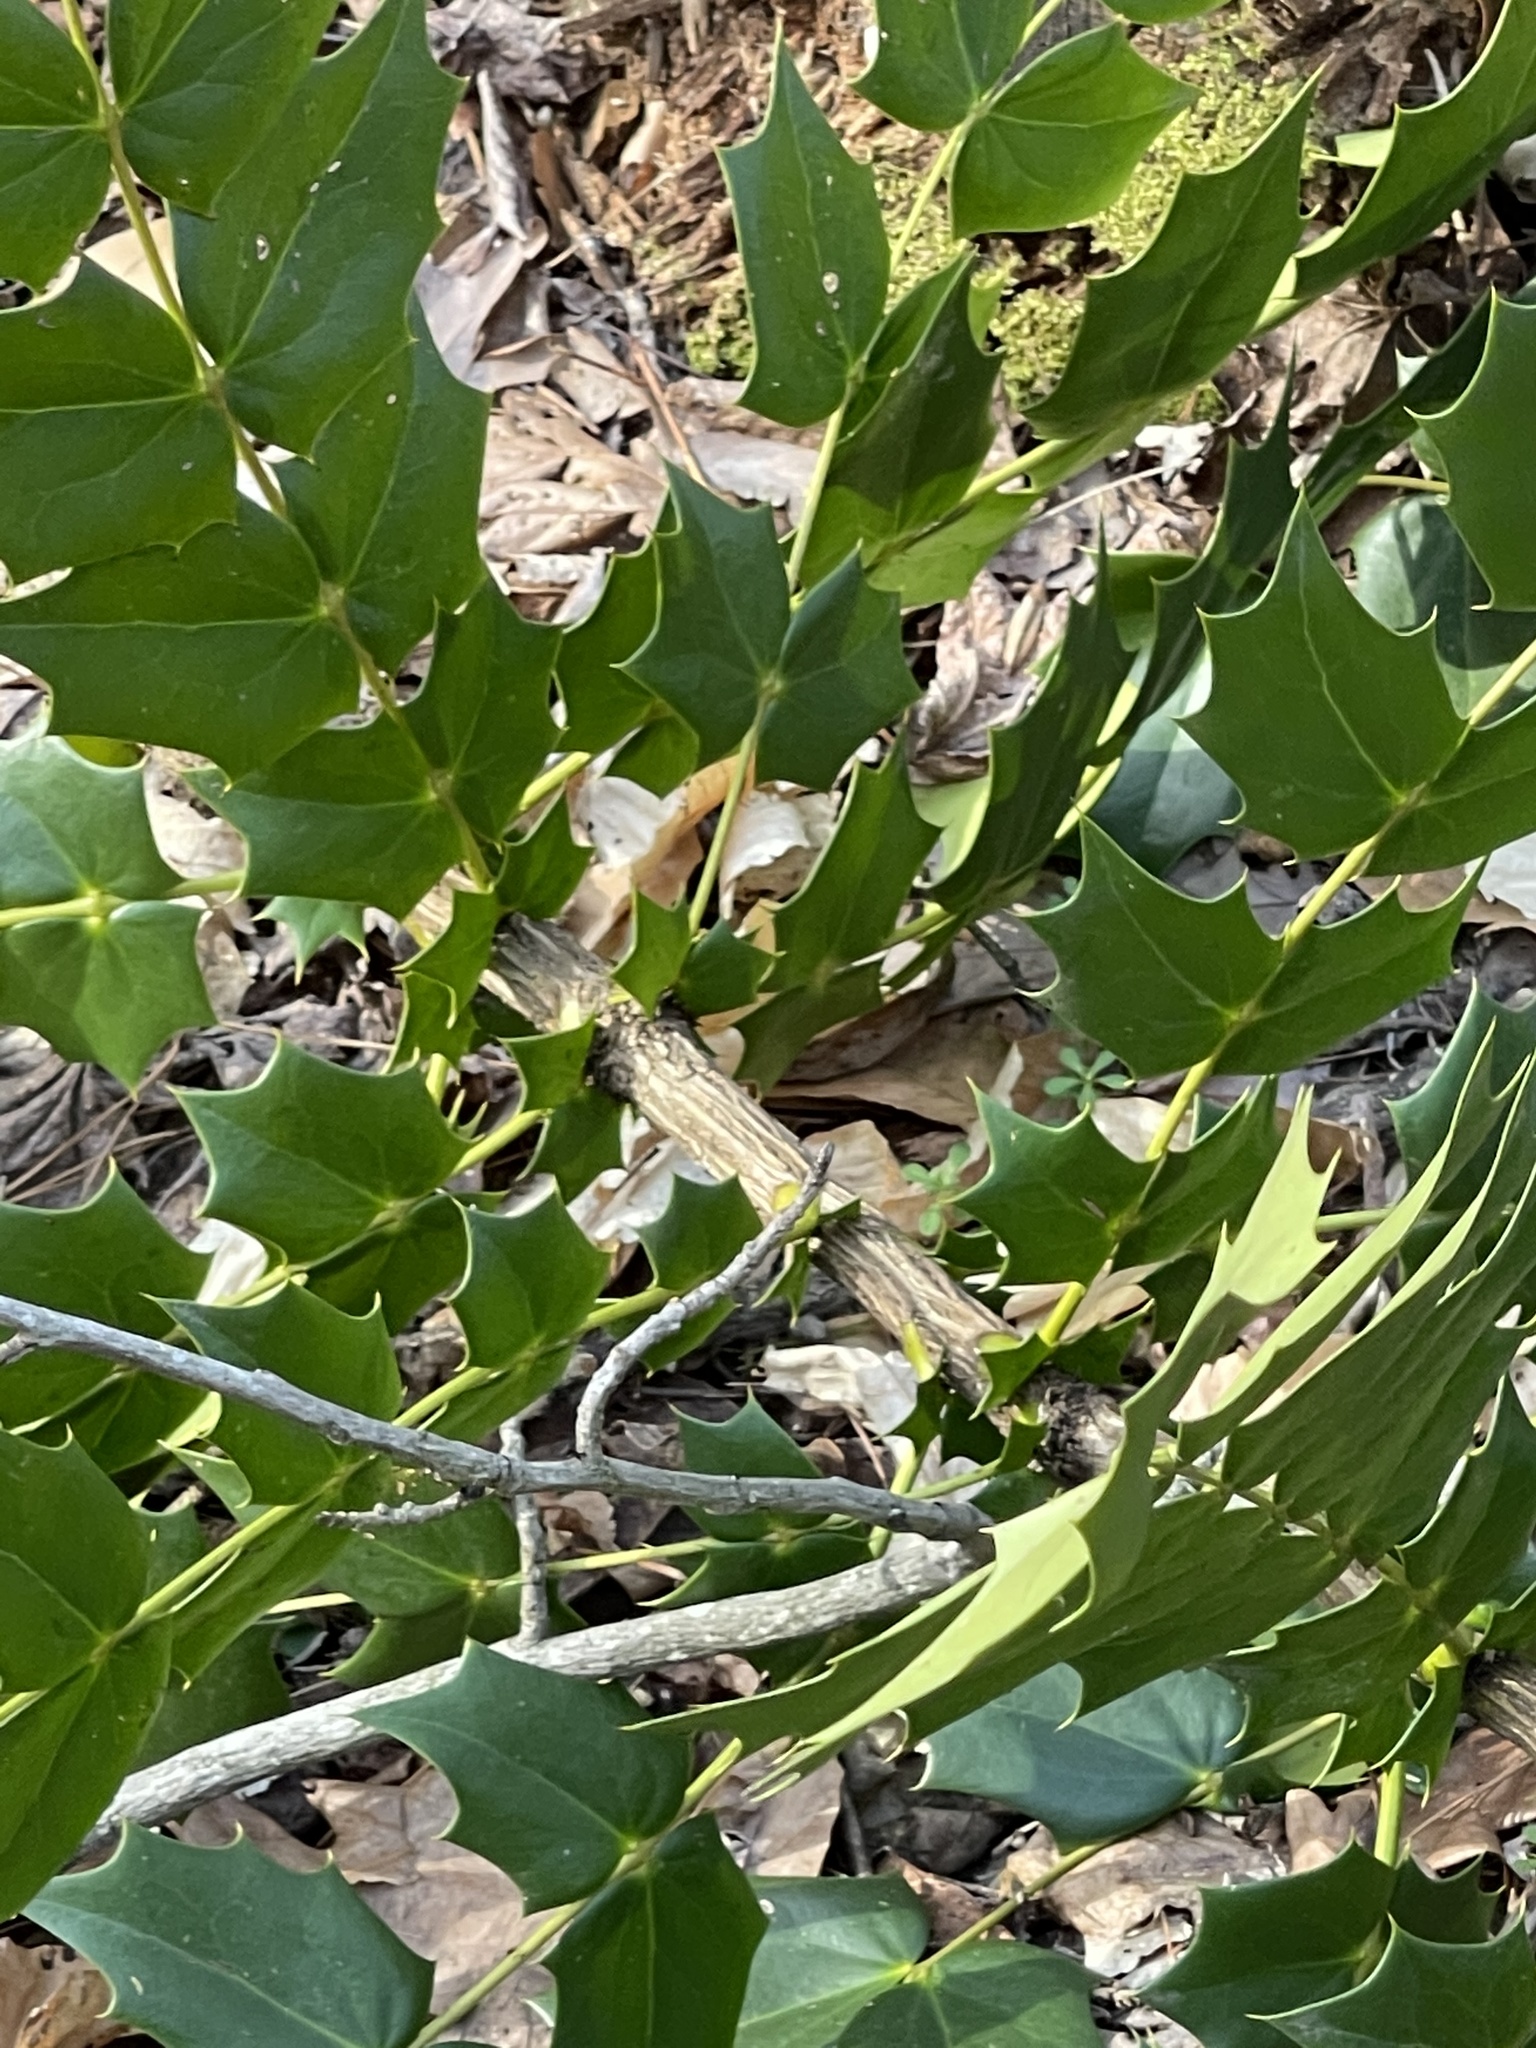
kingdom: Plantae
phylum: Tracheophyta
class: Magnoliopsida
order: Ranunculales
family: Berberidaceae
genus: Mahonia
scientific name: Mahonia bealei
